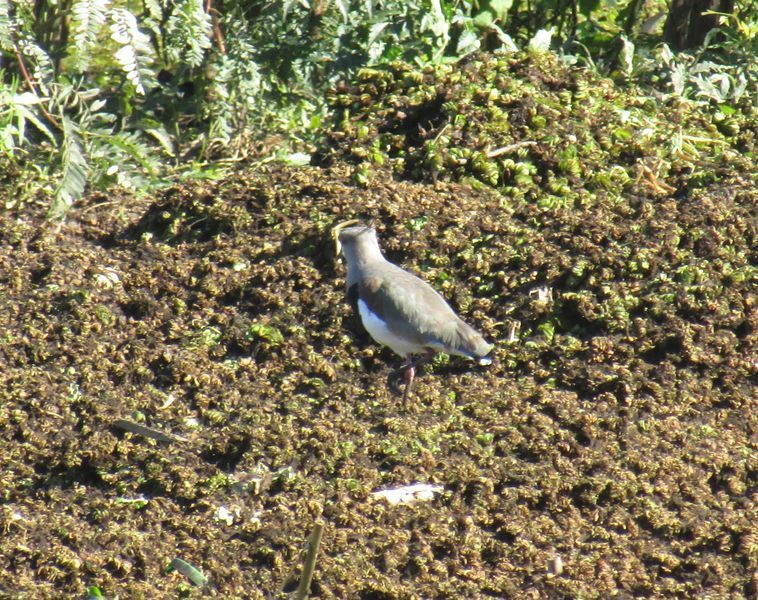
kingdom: Animalia
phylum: Chordata
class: Aves
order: Charadriiformes
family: Charadriidae
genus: Vanellus
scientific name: Vanellus chilensis
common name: Southern lapwing
